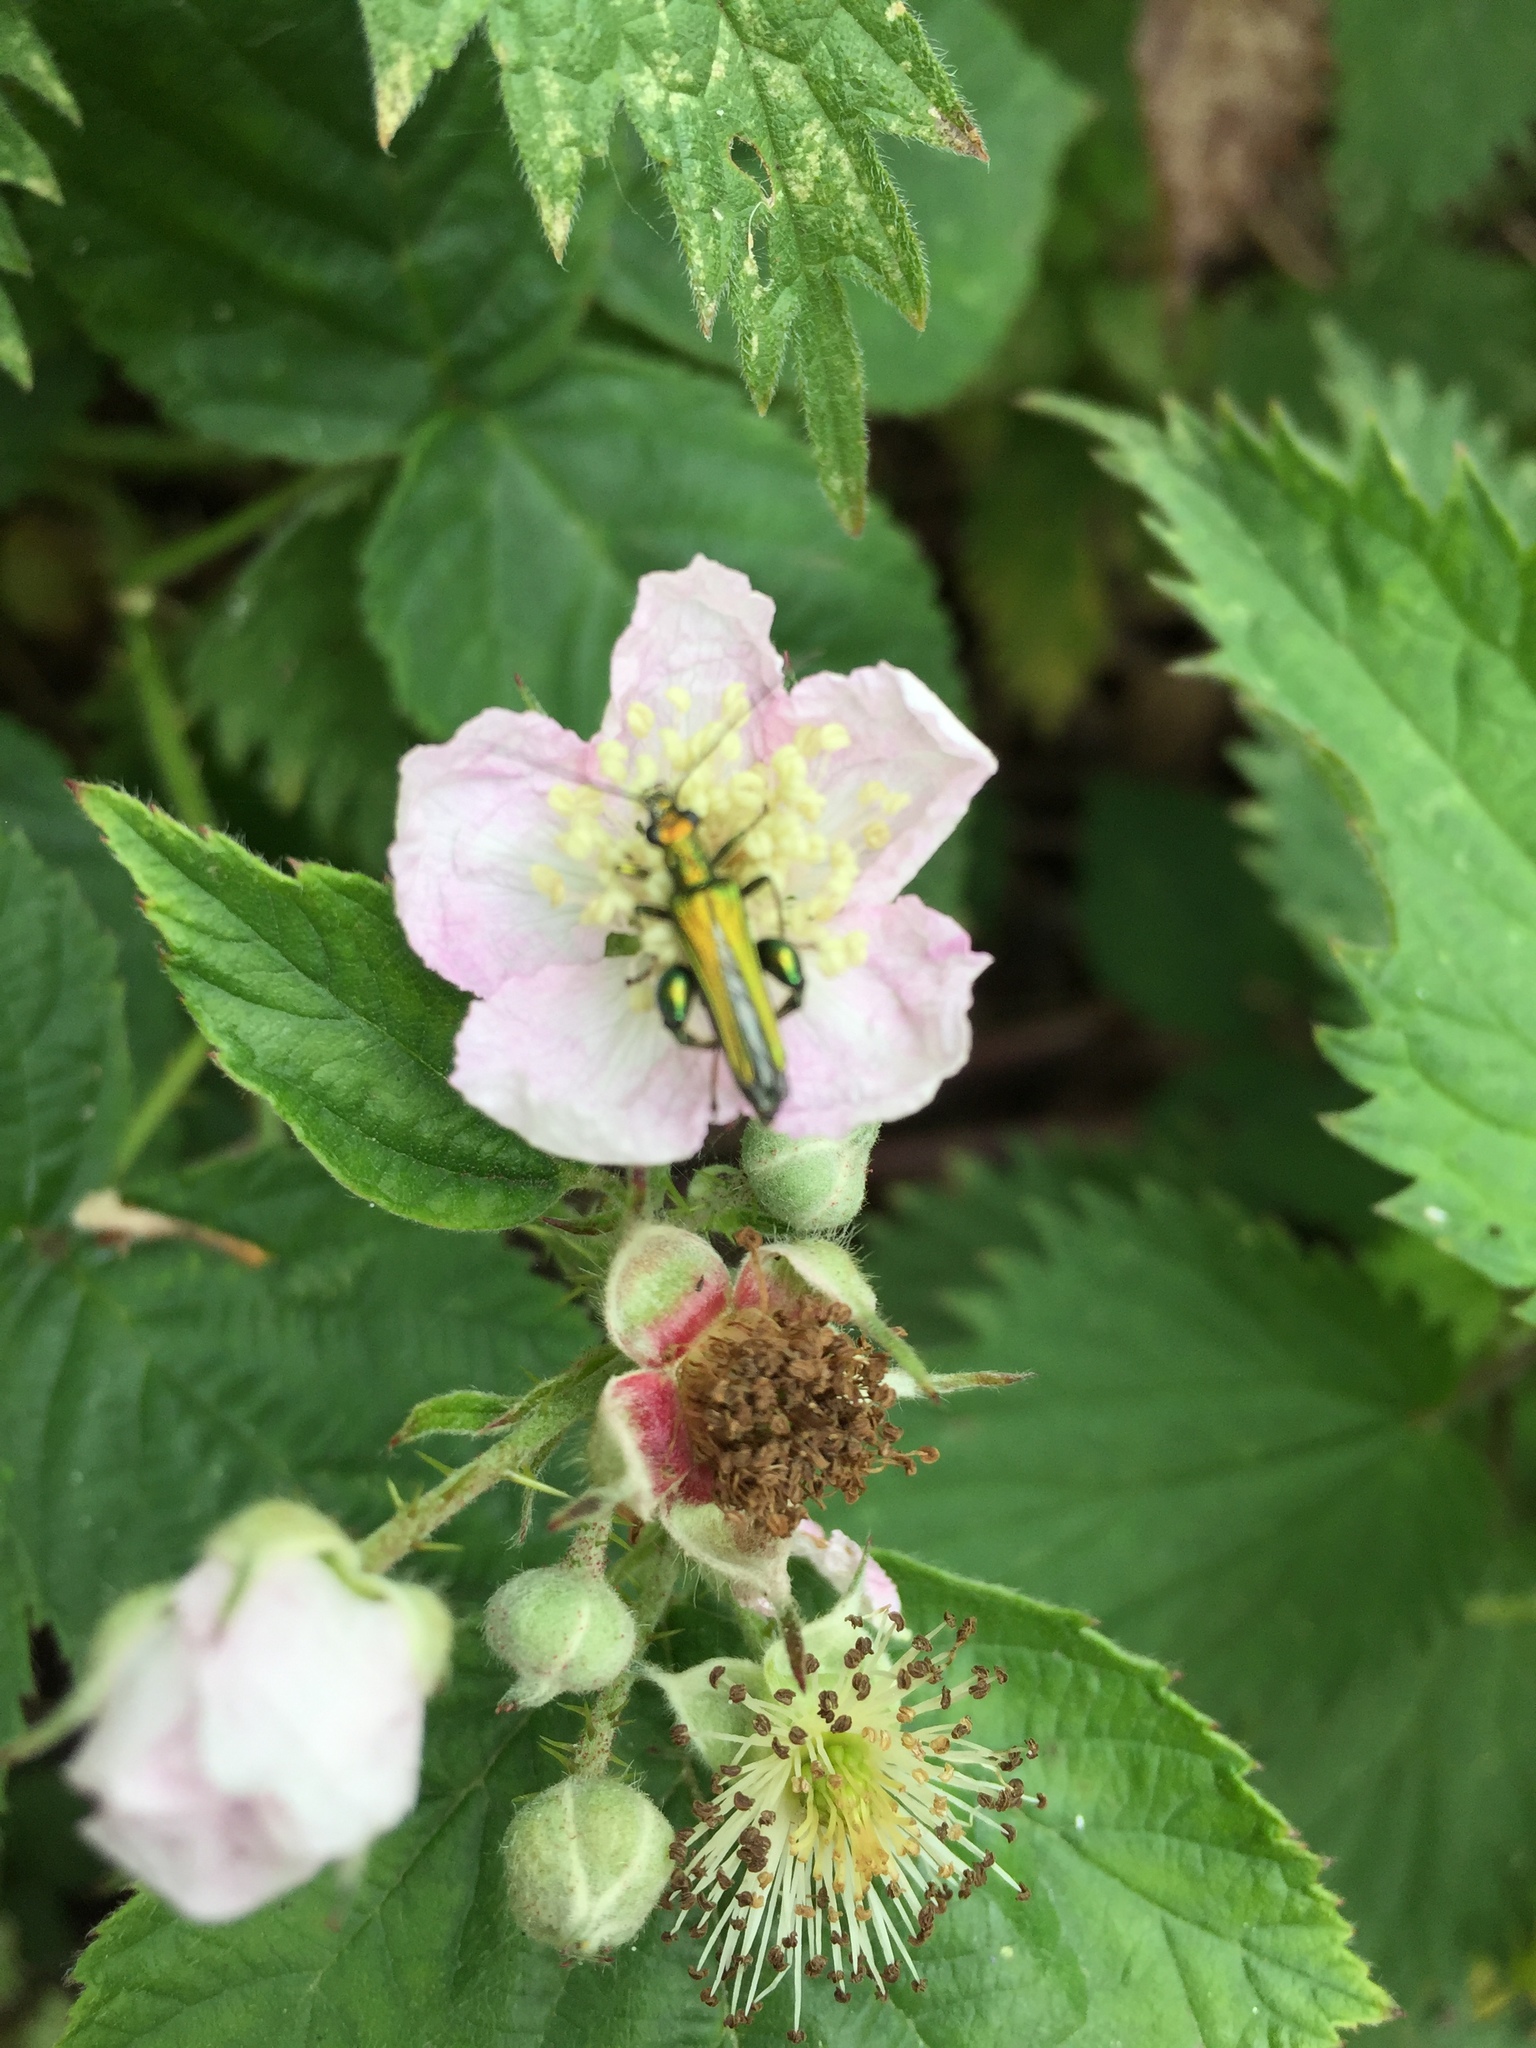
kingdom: Animalia
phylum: Arthropoda
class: Insecta
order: Coleoptera
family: Oedemeridae
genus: Oedemera
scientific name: Oedemera nobilis
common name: Swollen-thighed beetle
